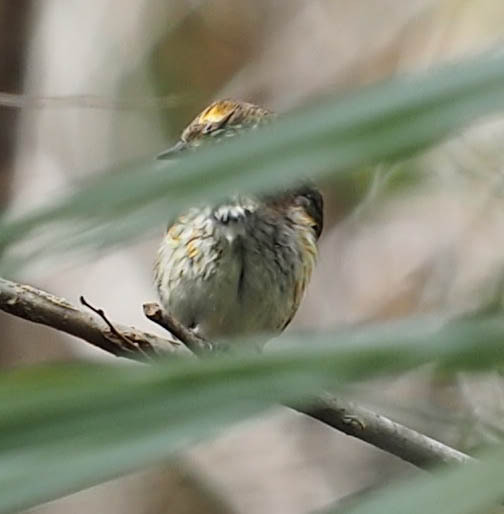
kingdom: Animalia
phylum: Chordata
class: Aves
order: Passeriformes
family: Parulidae
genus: Setophaga
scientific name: Setophaga coronata
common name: Myrtle warbler
